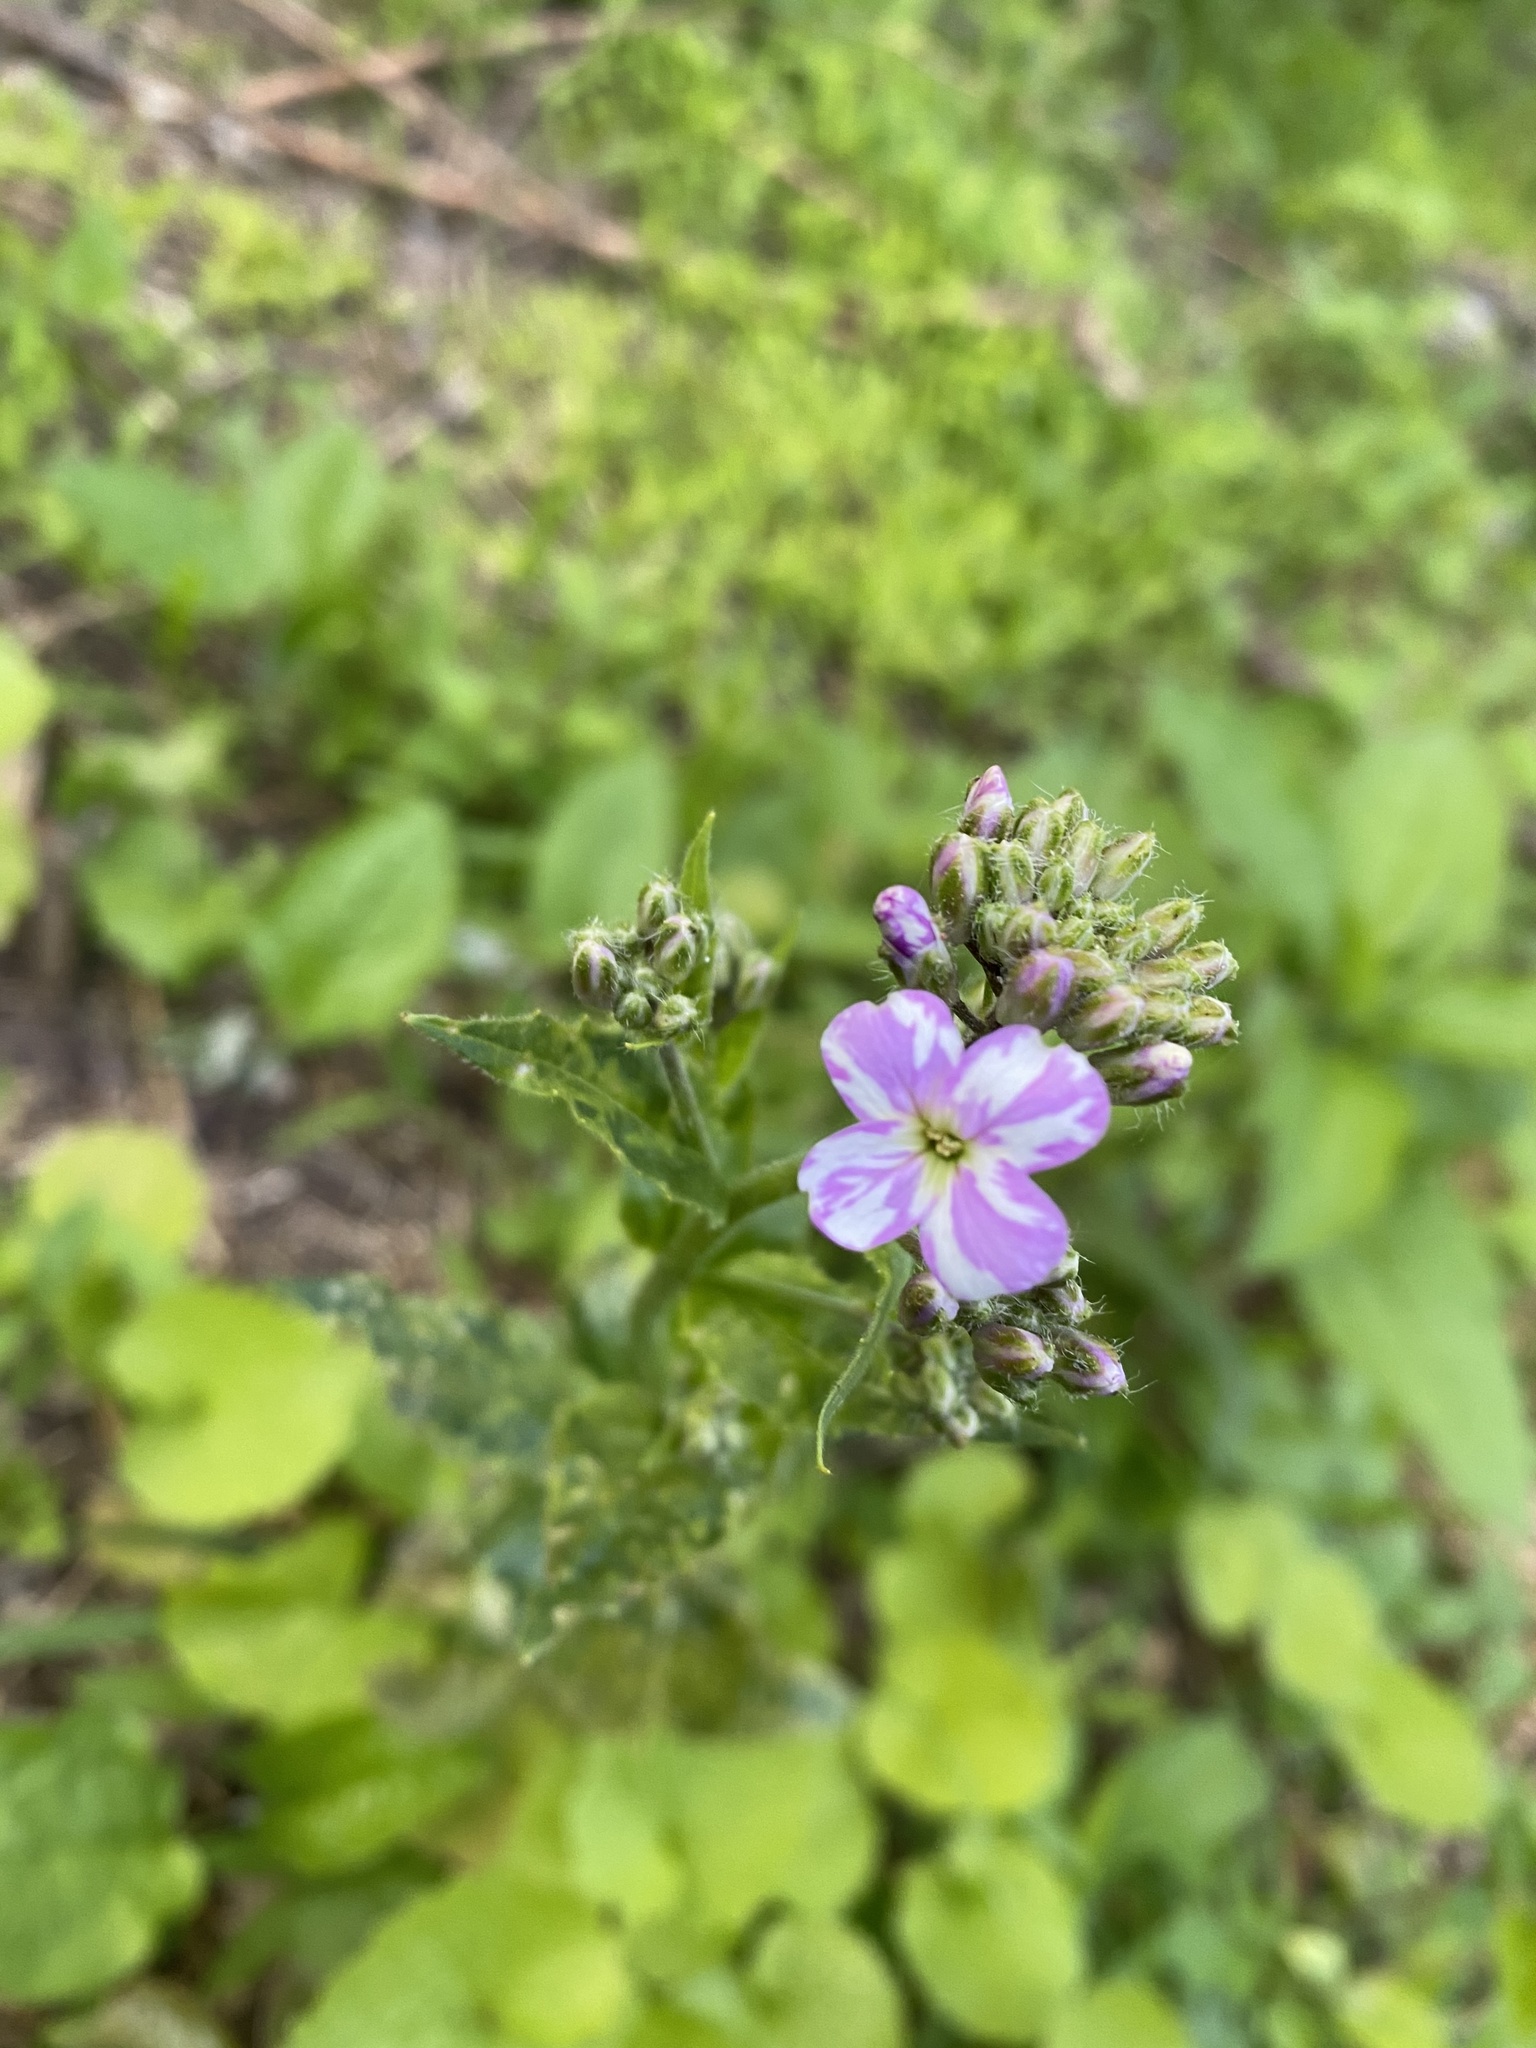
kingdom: Plantae
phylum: Tracheophyta
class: Magnoliopsida
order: Brassicales
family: Brassicaceae
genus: Hesperis
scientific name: Hesperis matronalis
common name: Dame's-violet
